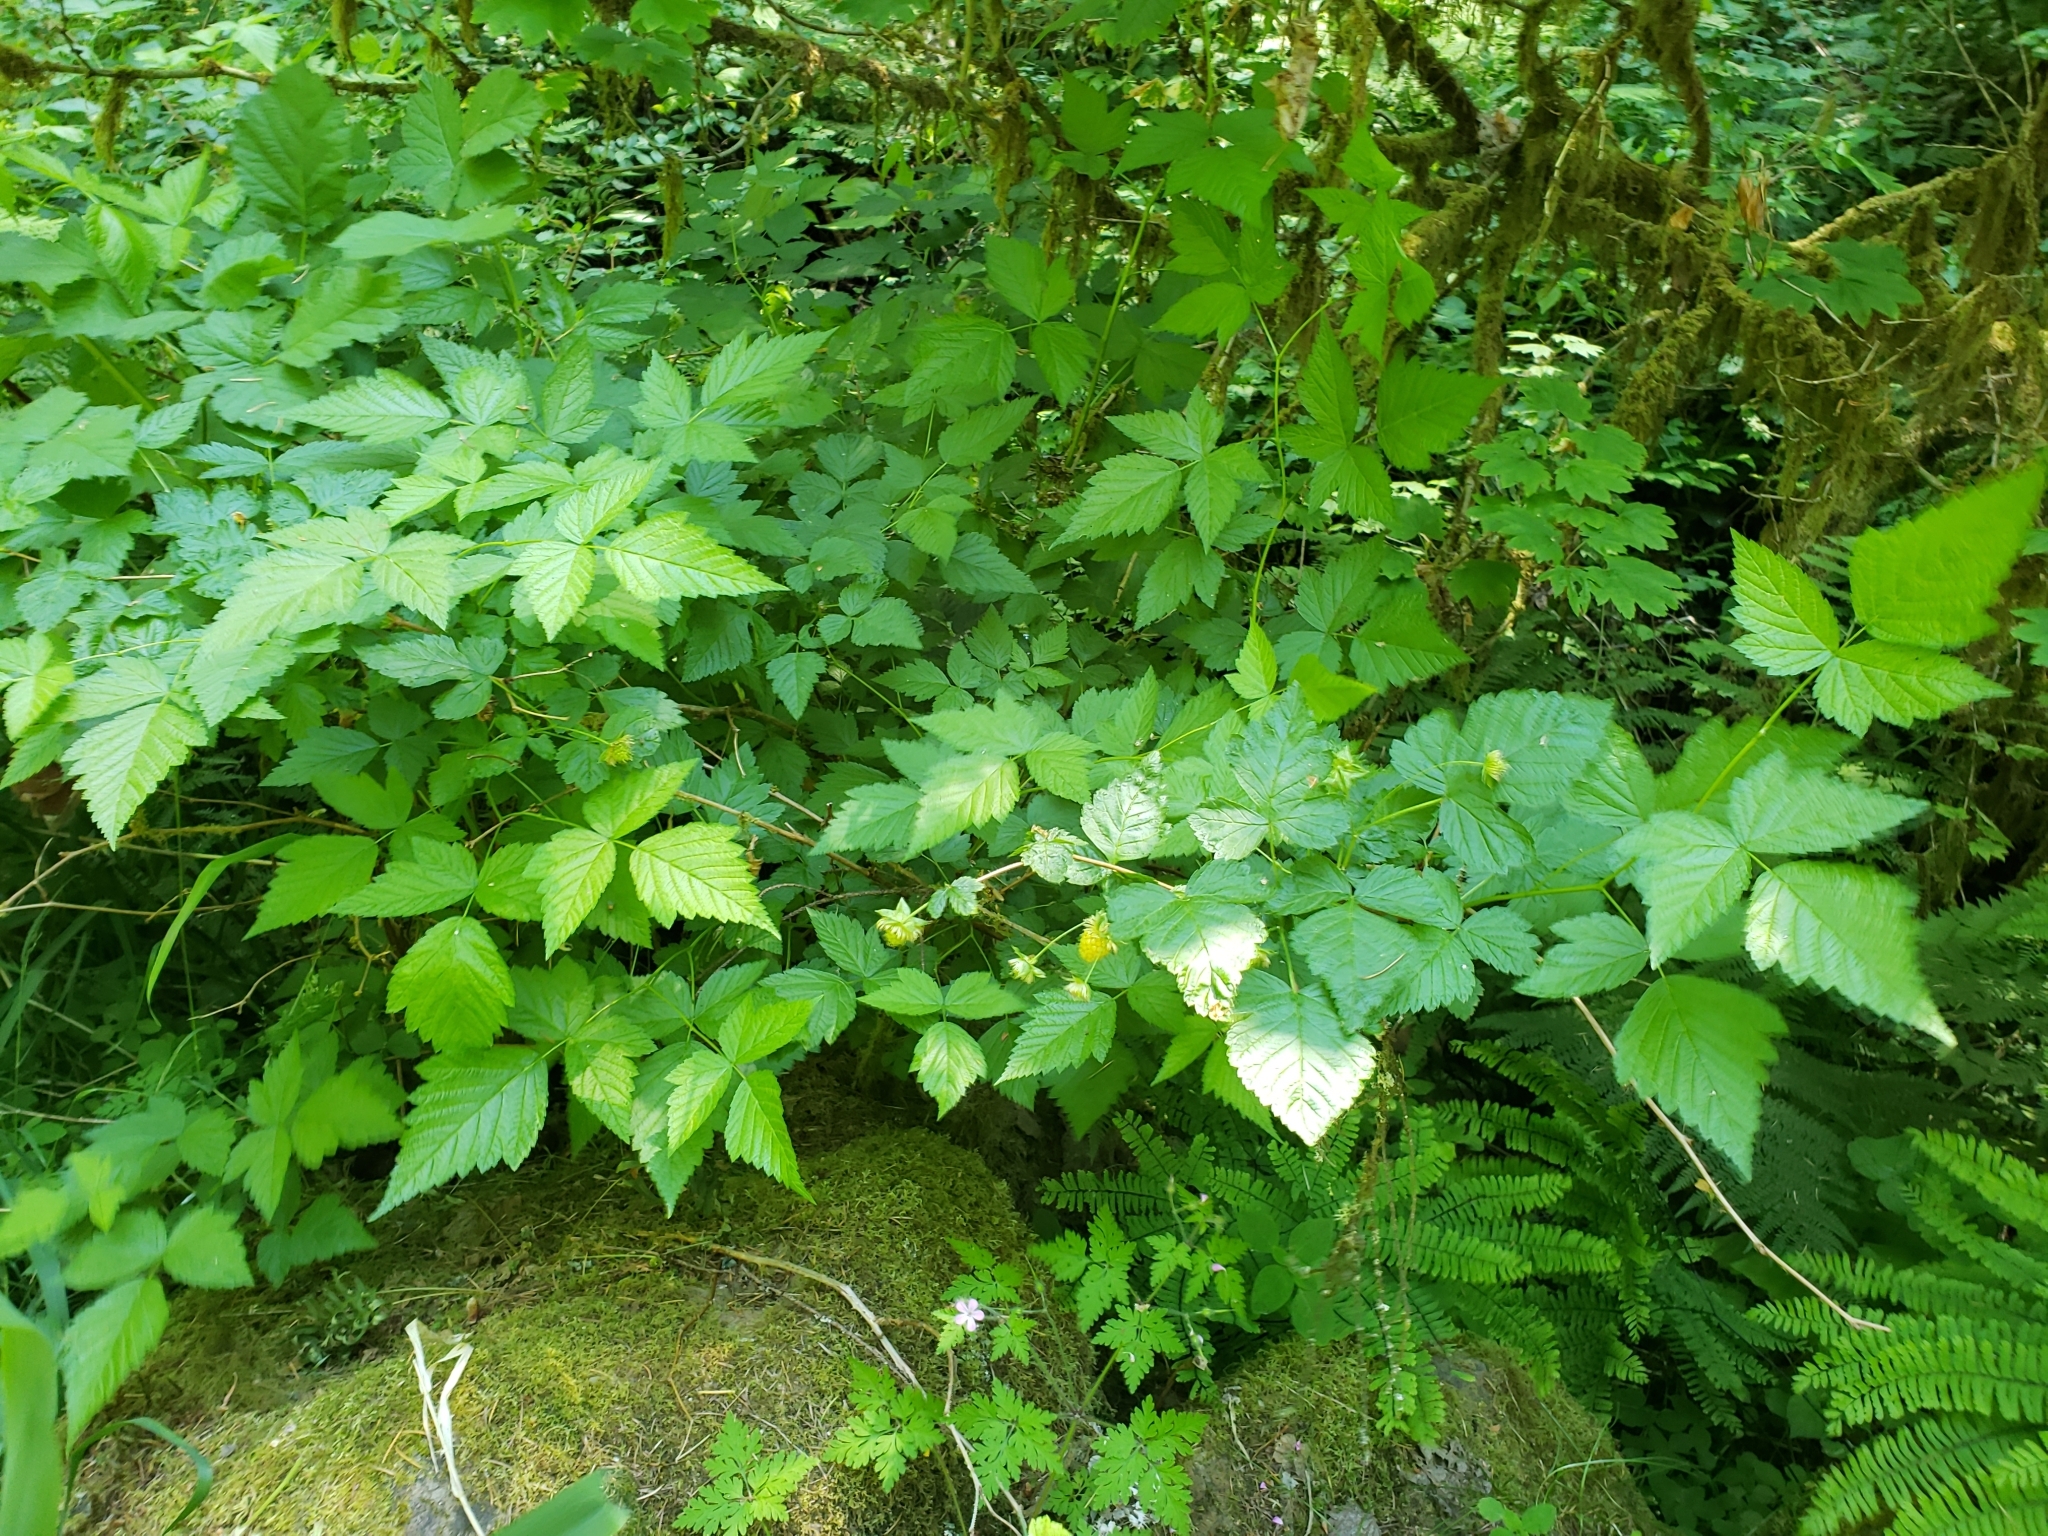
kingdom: Plantae
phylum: Tracheophyta
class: Magnoliopsida
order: Rosales
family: Rosaceae
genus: Rubus
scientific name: Rubus spectabilis
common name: Salmonberry
